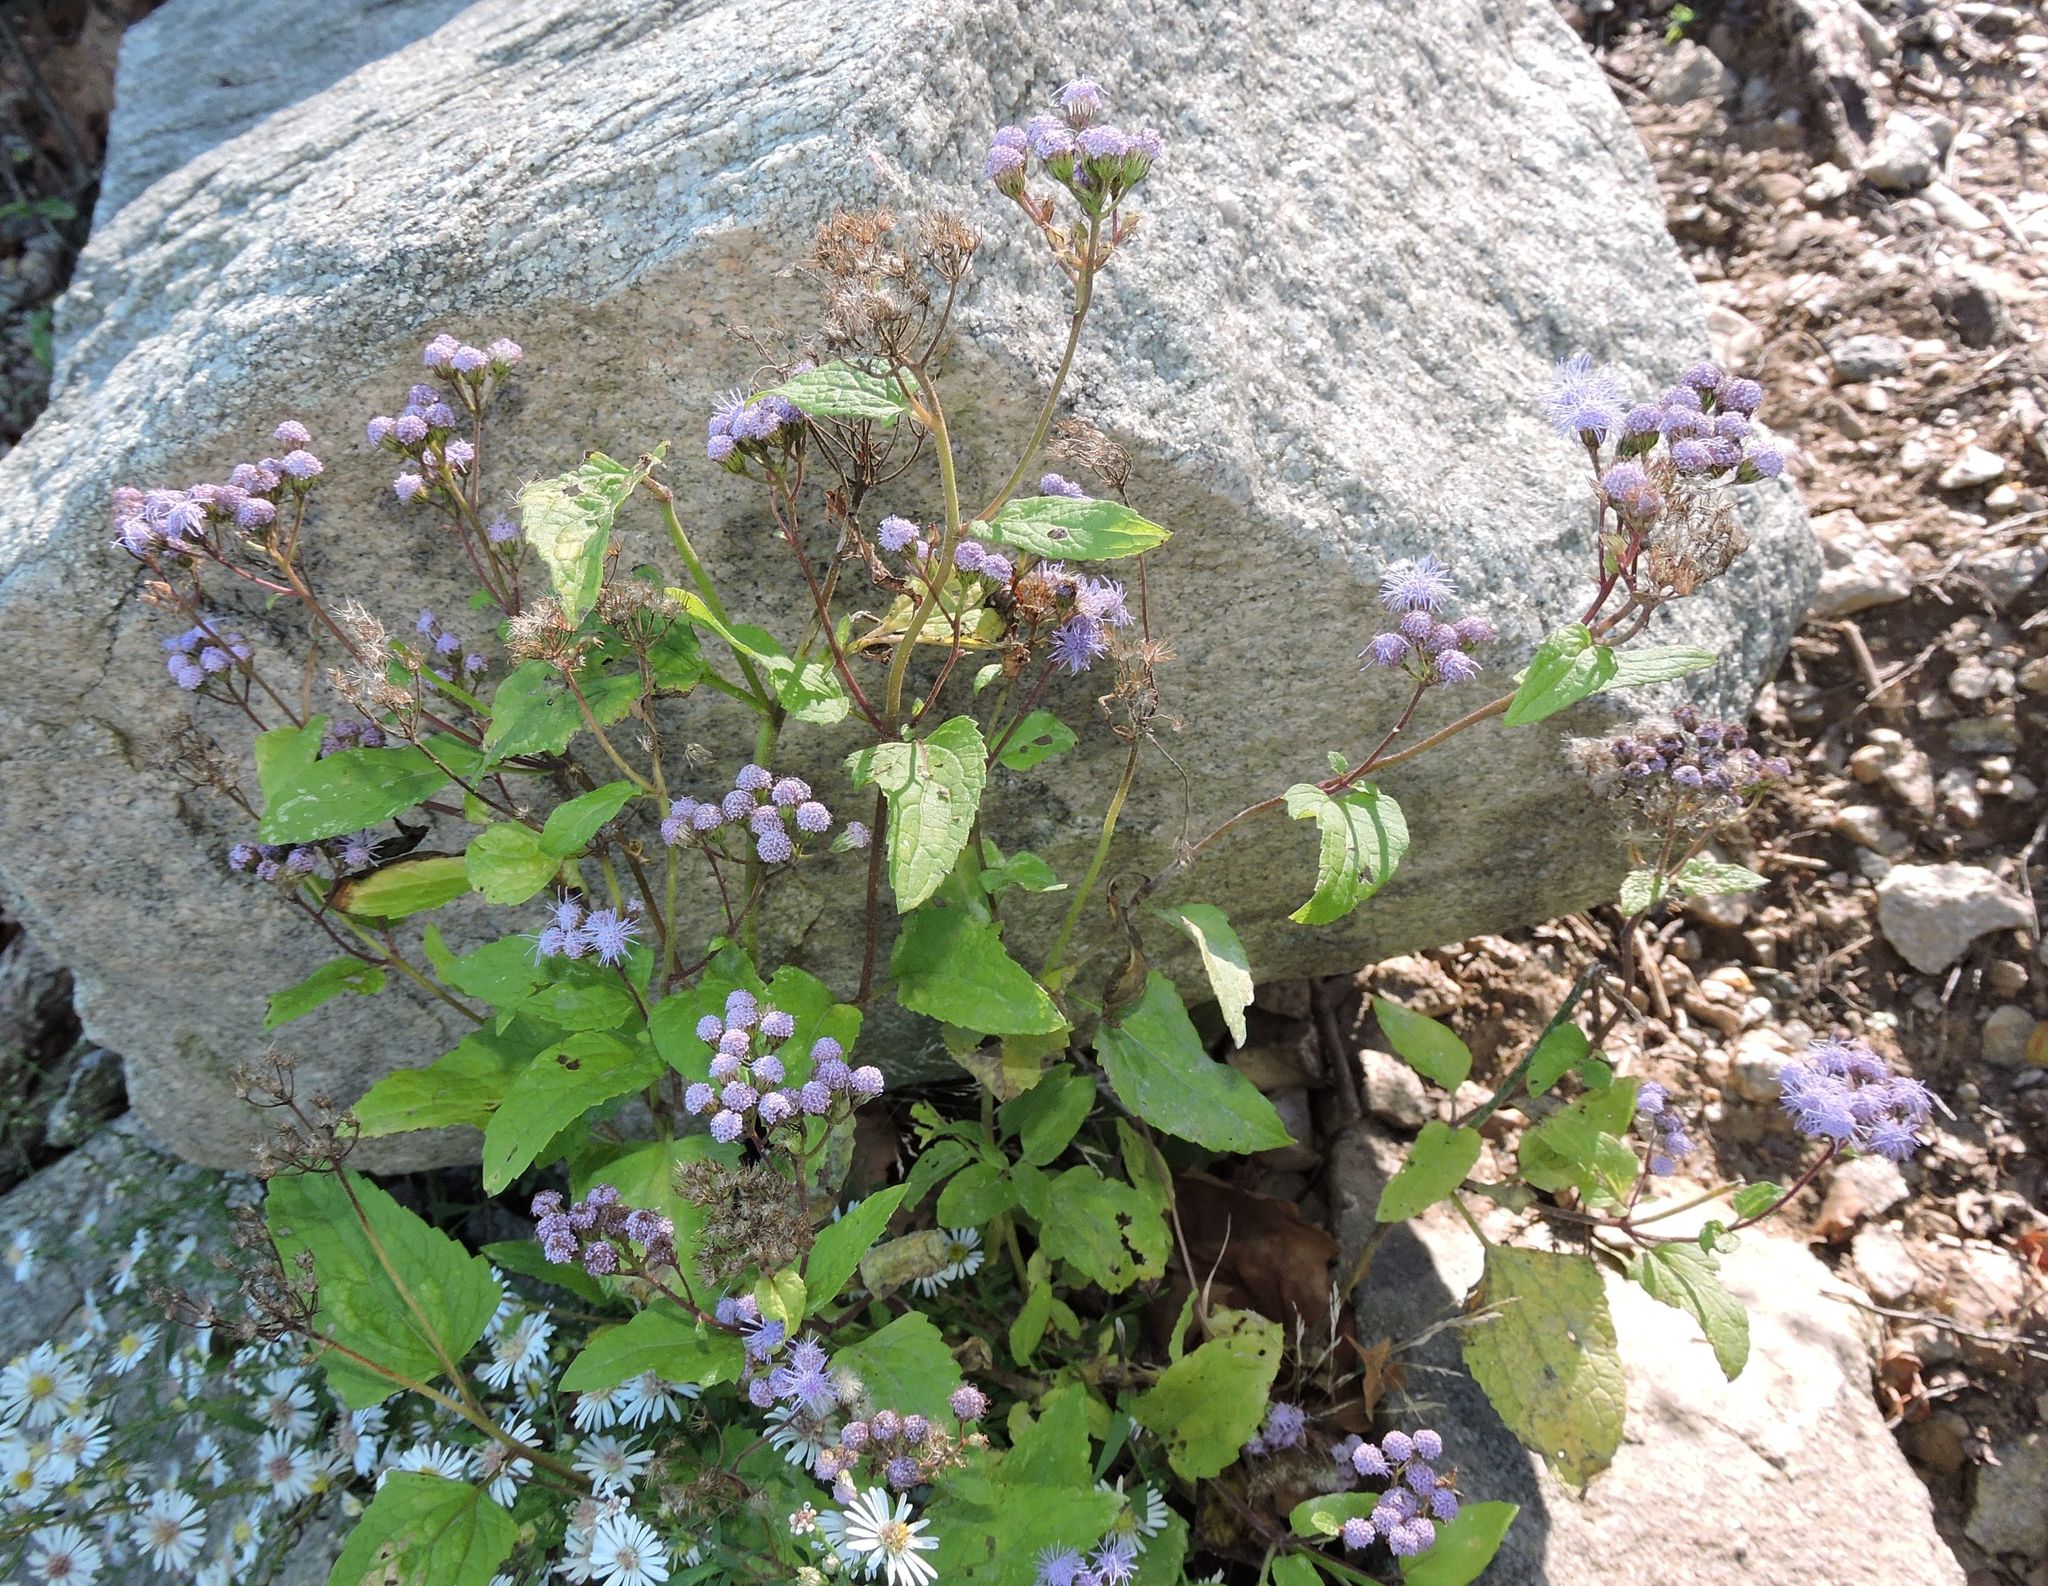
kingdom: Plantae
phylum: Tracheophyta
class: Magnoliopsida
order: Asterales
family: Asteraceae
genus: Conoclinium
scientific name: Conoclinium coelestinum
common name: Blue mistflower
